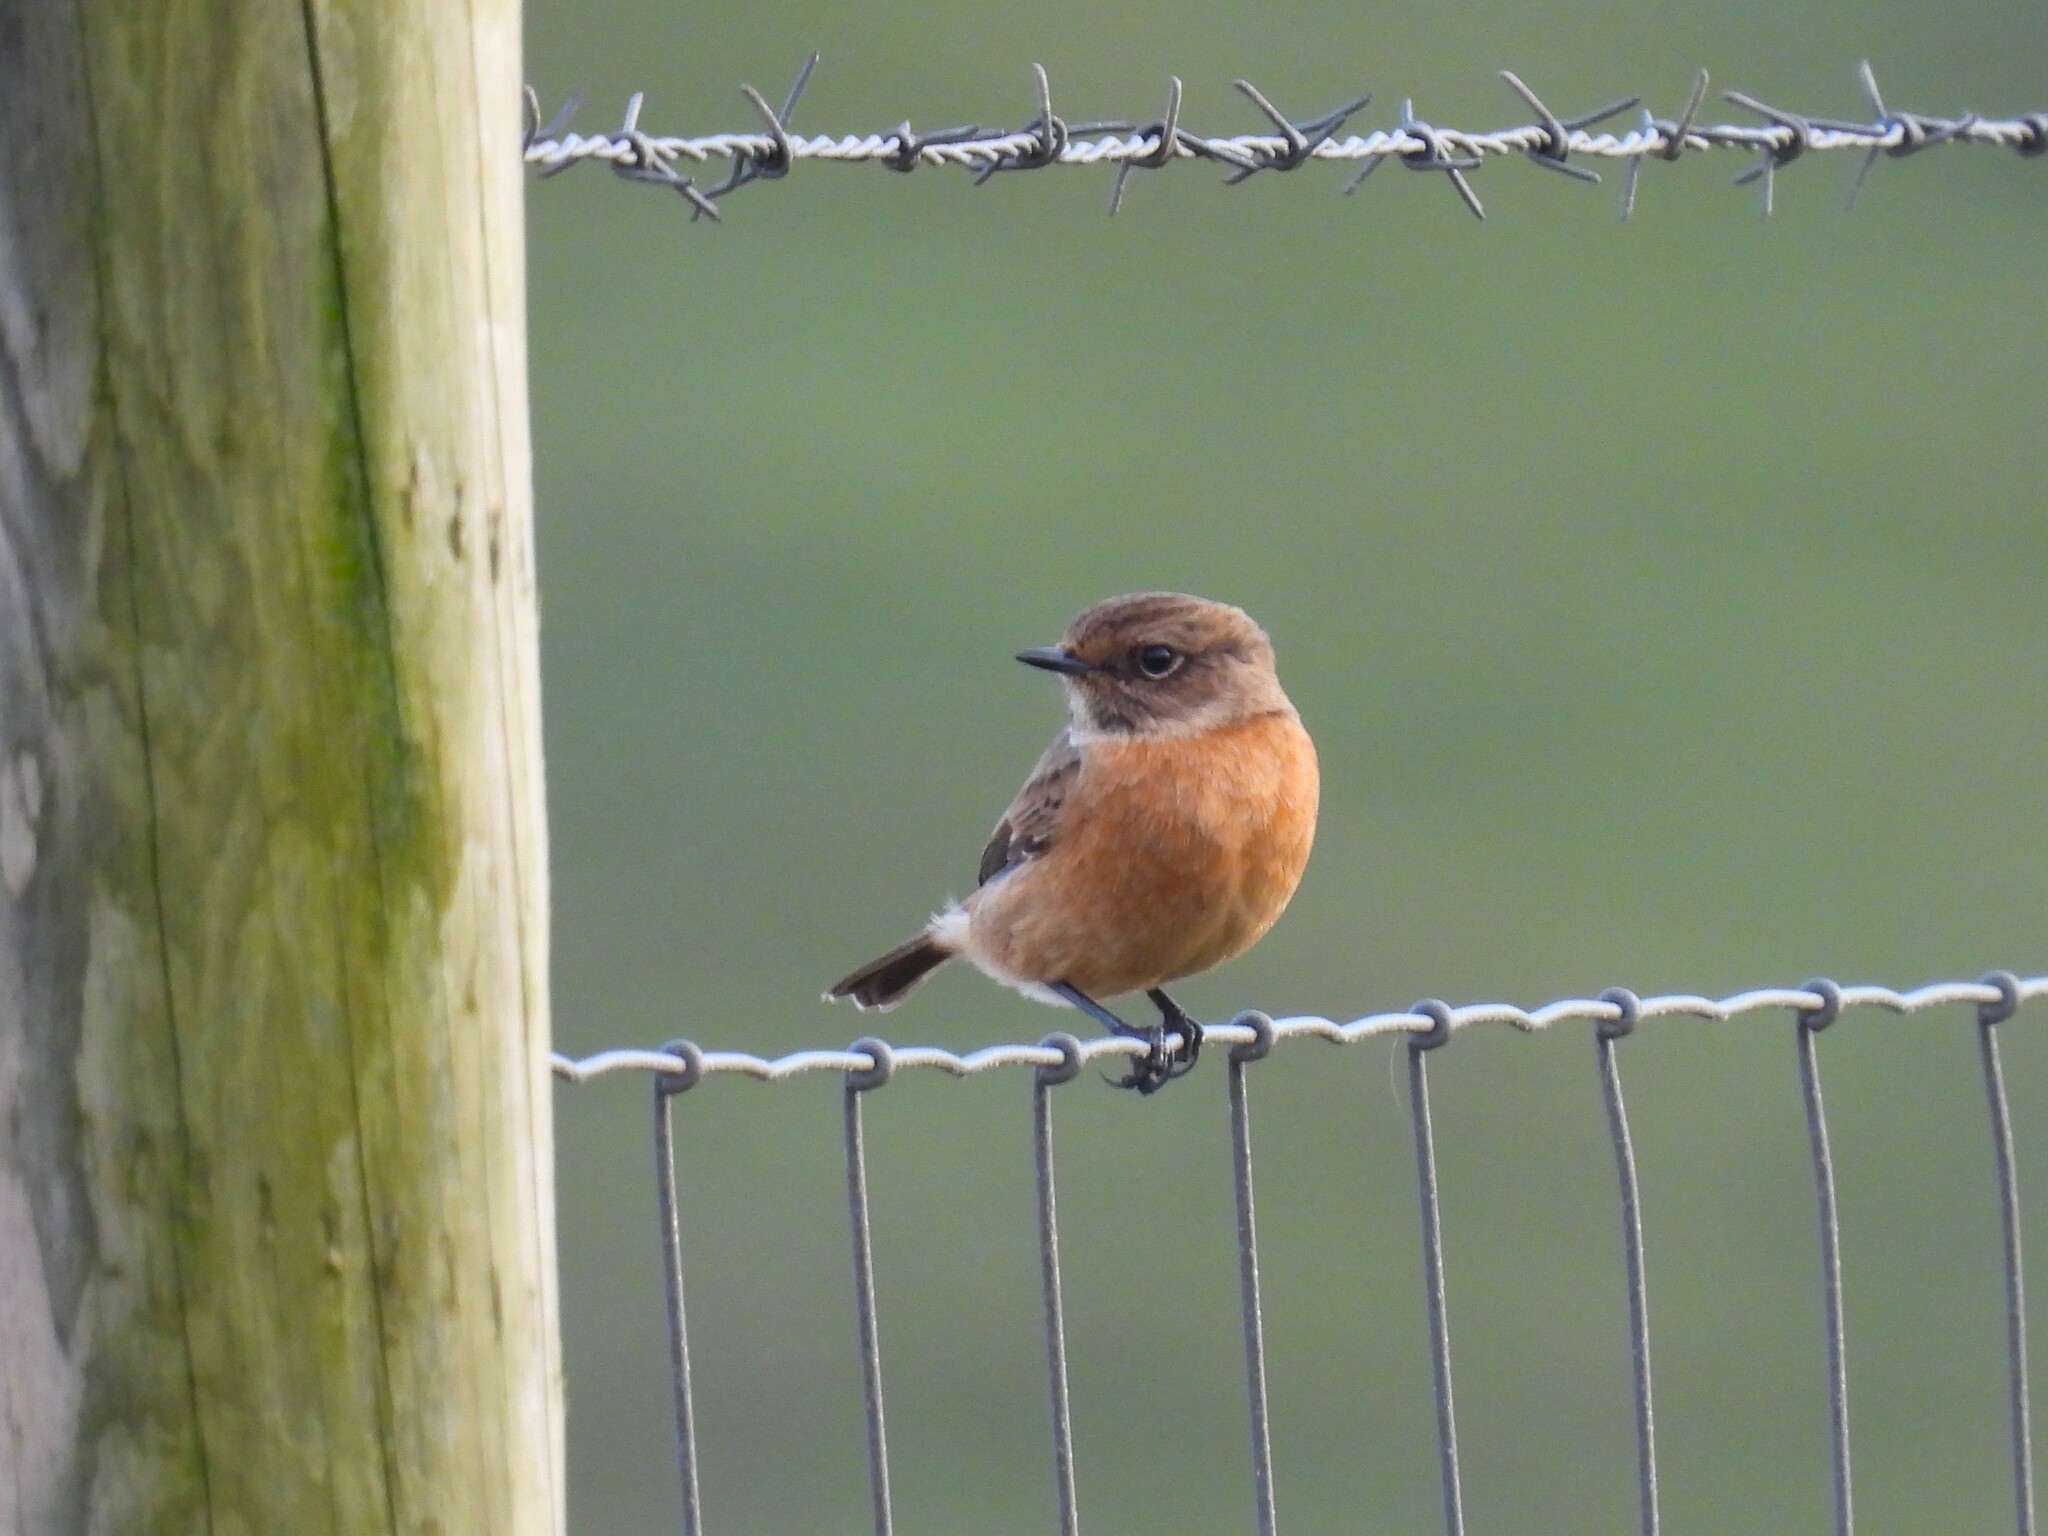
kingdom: Animalia
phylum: Chordata
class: Aves
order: Passeriformes
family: Muscicapidae
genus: Saxicola
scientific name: Saxicola rubicola
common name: European stonechat
